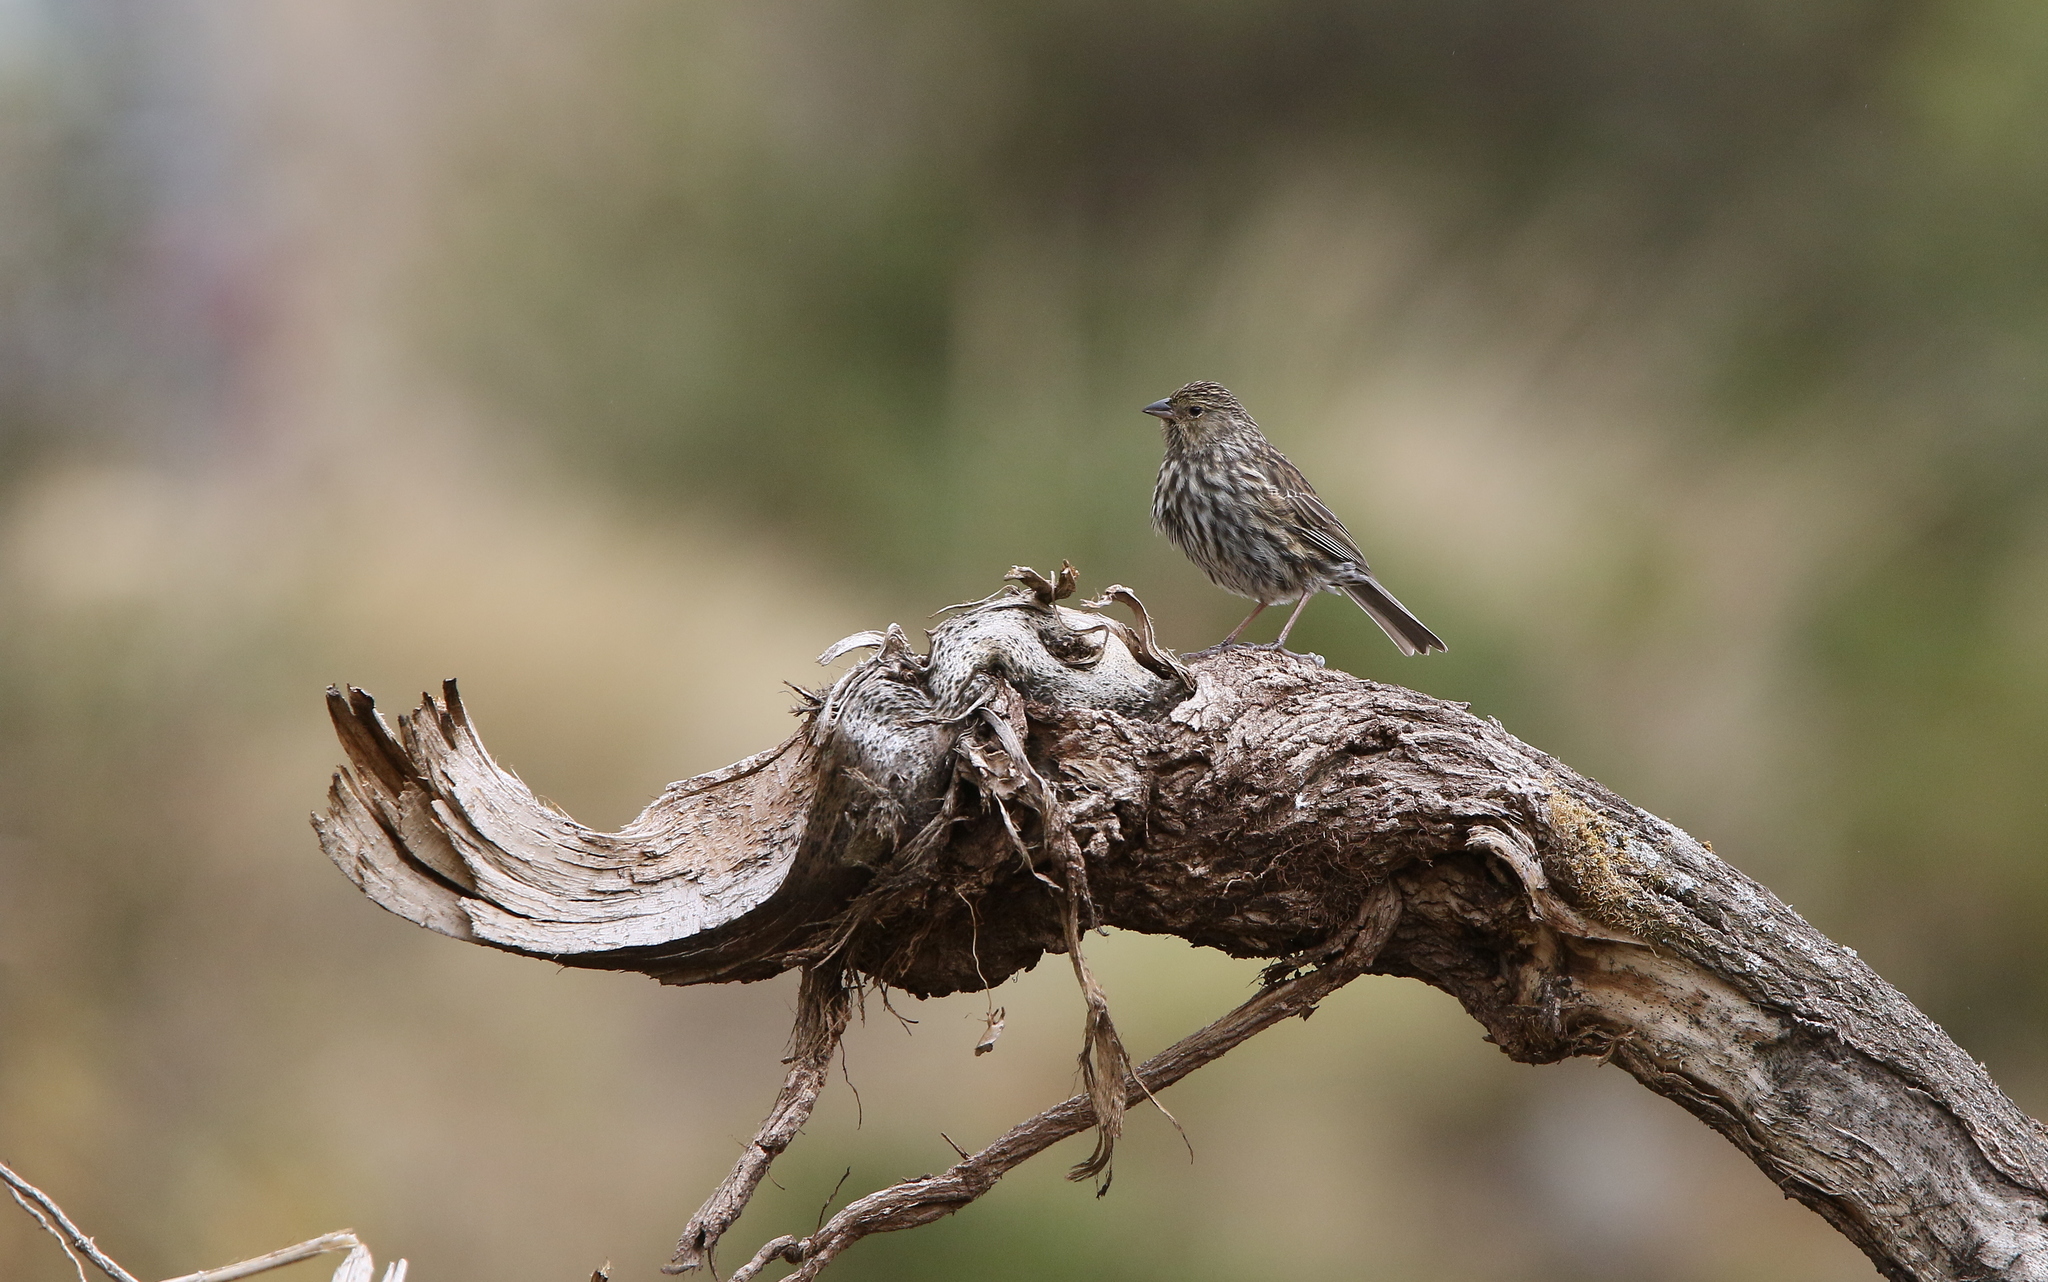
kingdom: Animalia
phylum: Chordata
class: Aves
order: Passeriformes
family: Thraupidae
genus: Geospizopsis
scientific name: Geospizopsis unicolor
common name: Plumbeous sierra-finch
